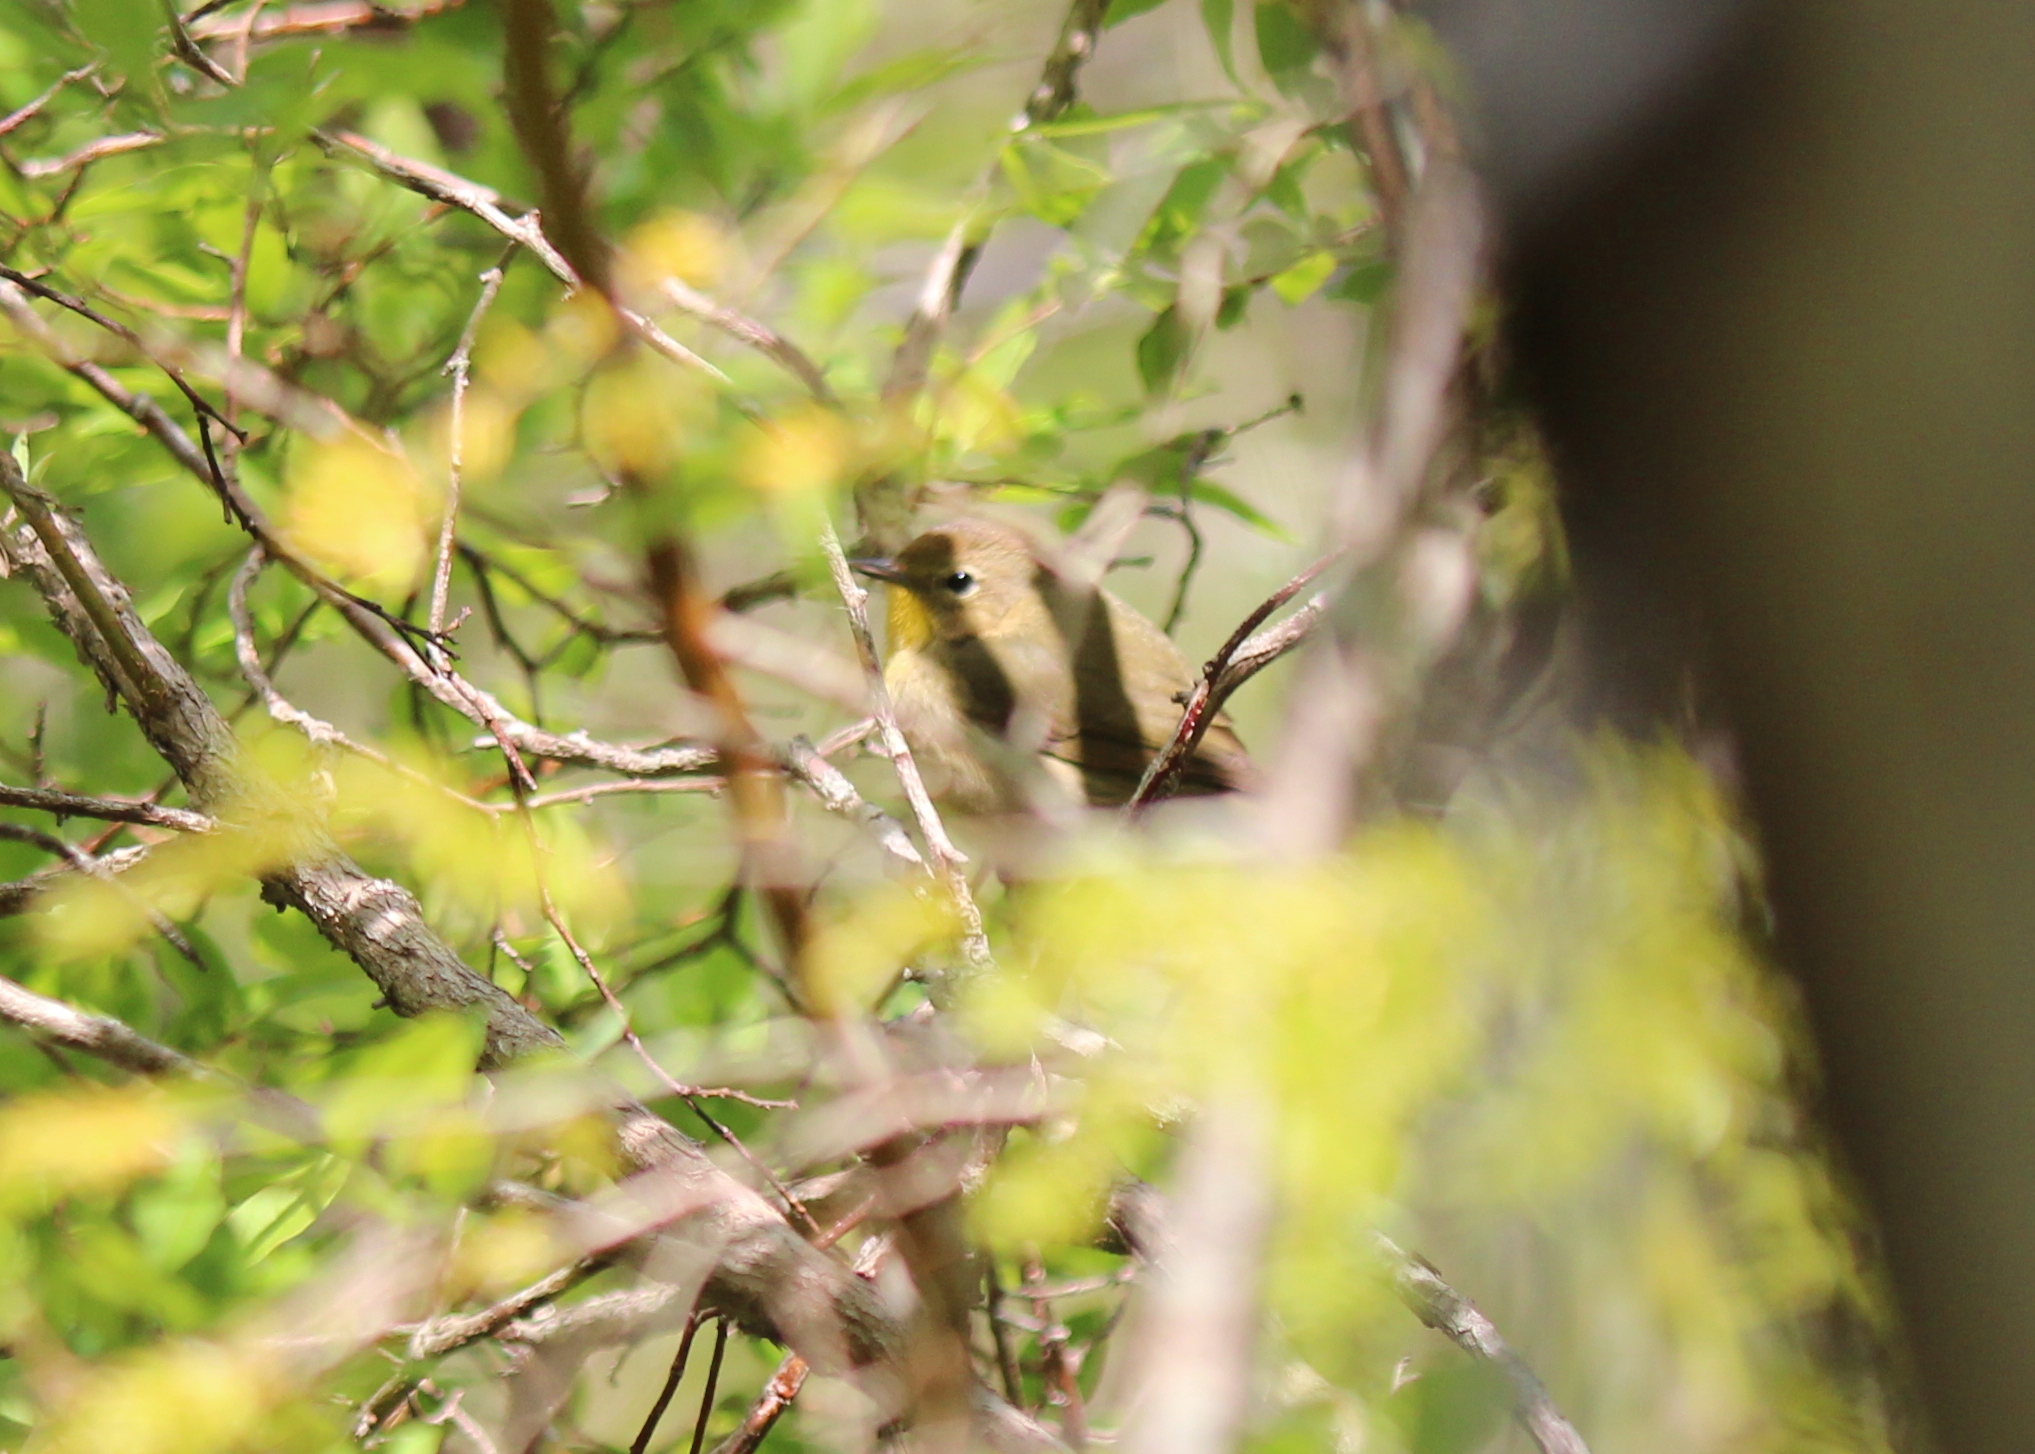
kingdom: Animalia
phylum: Chordata
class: Aves
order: Passeriformes
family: Parulidae
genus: Geothlypis
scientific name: Geothlypis trichas
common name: Common yellowthroat
